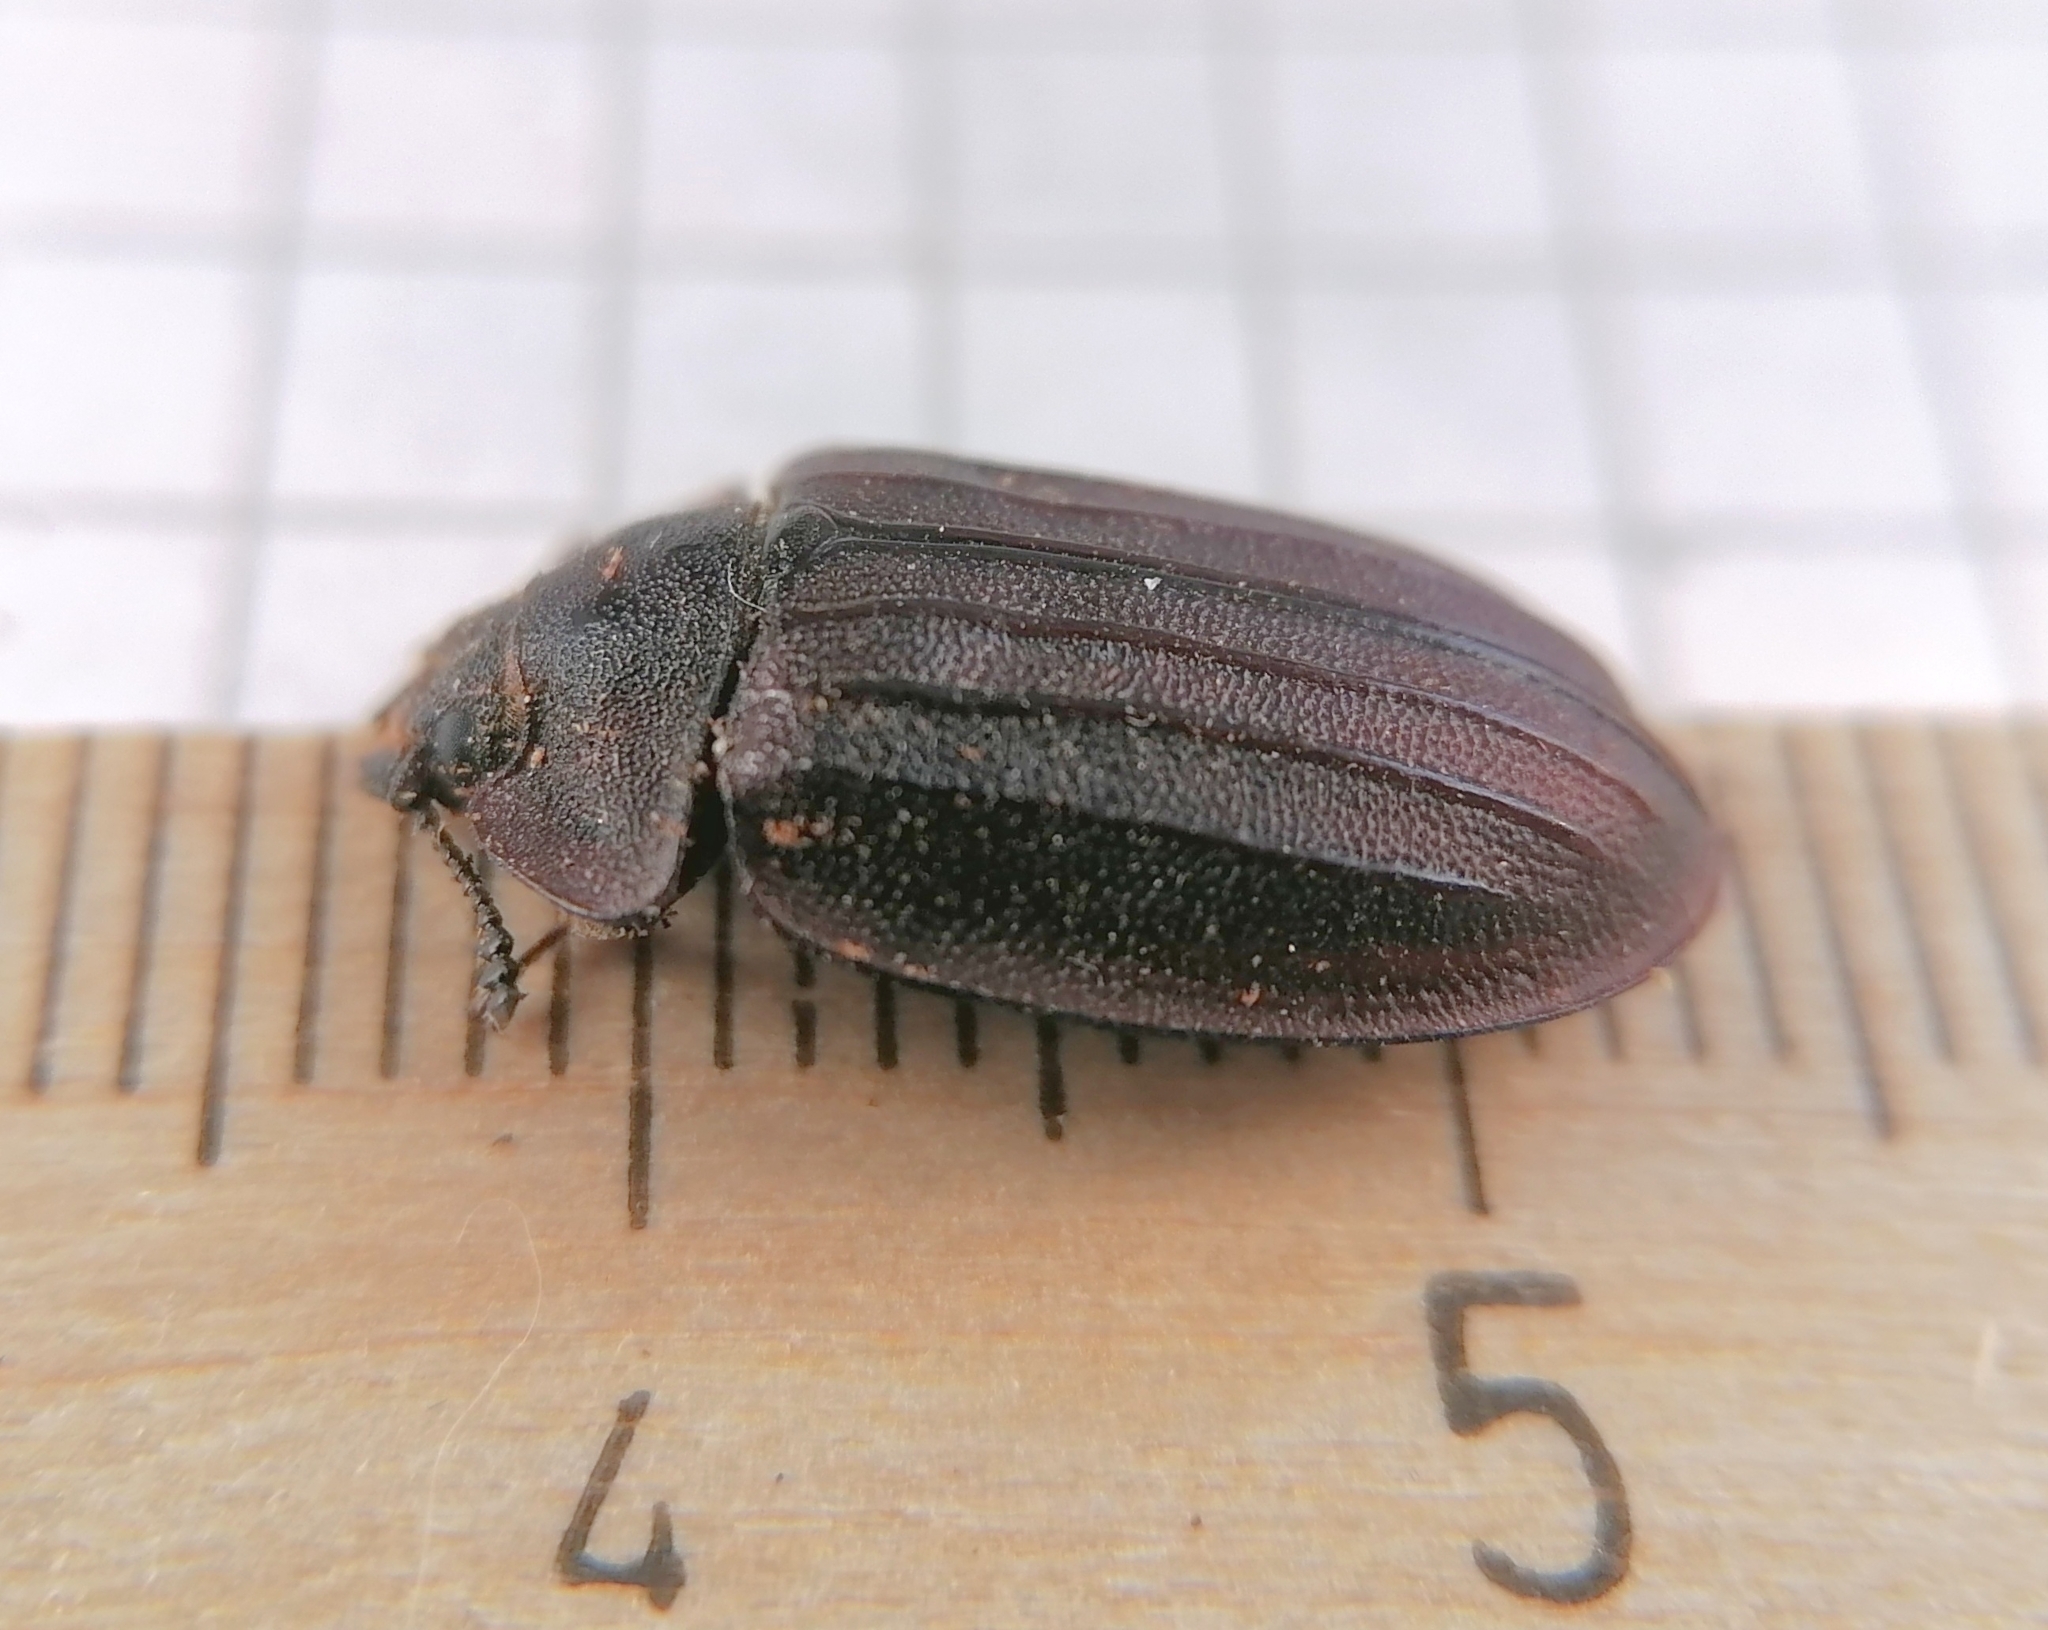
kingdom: Animalia
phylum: Arthropoda
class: Insecta
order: Coleoptera
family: Trogossitidae
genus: Peltis
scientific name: Peltis grossa
